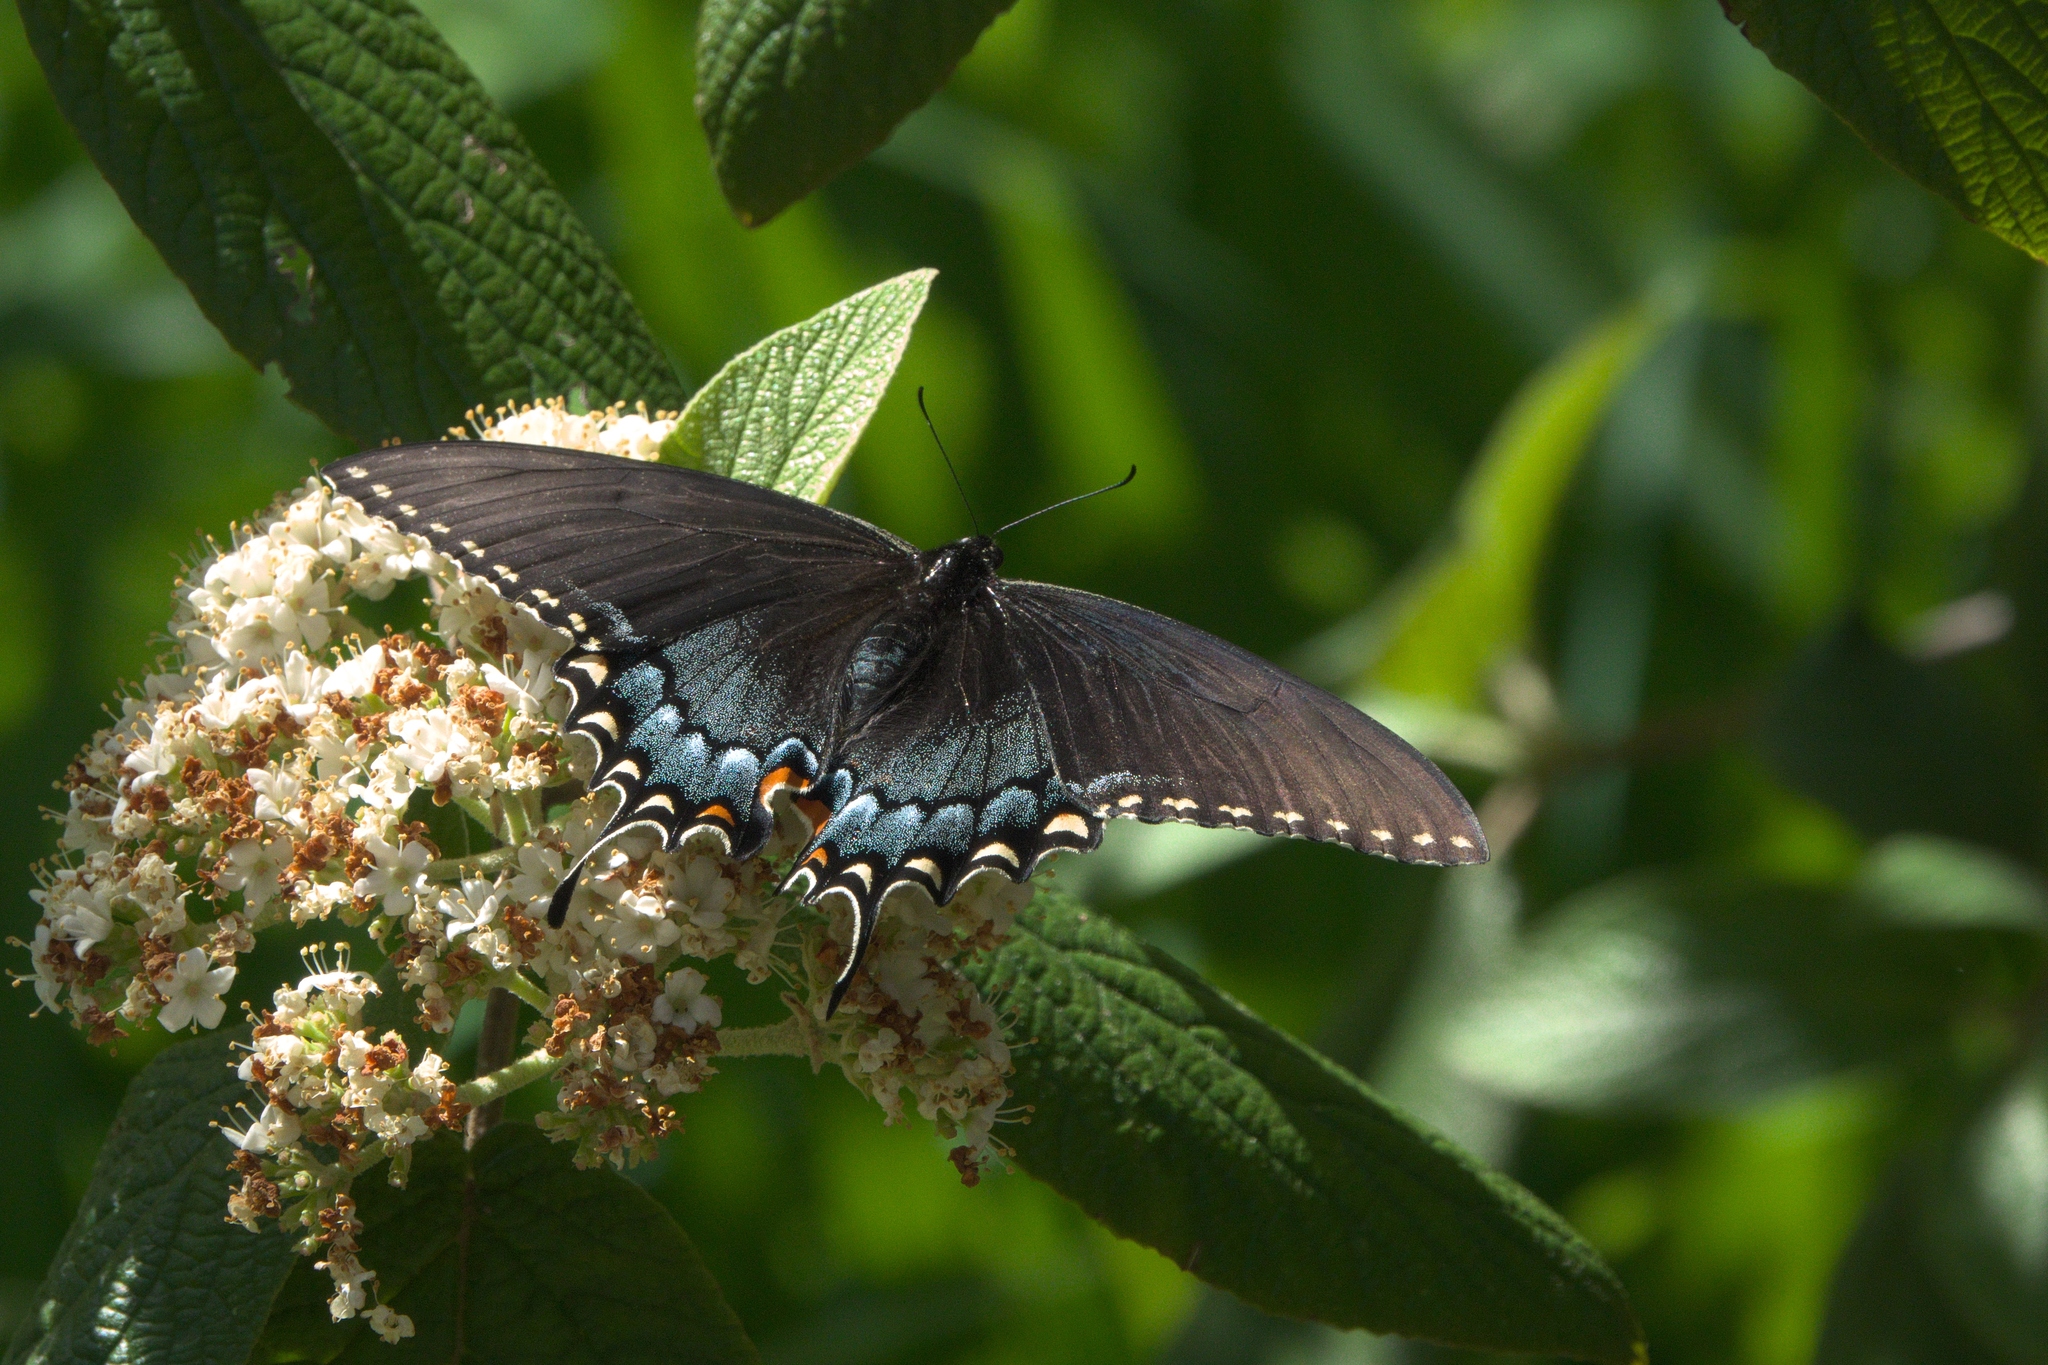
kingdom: Animalia
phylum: Arthropoda
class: Insecta
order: Lepidoptera
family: Papilionidae
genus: Papilio
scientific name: Papilio glaucus
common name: Tiger swallowtail
